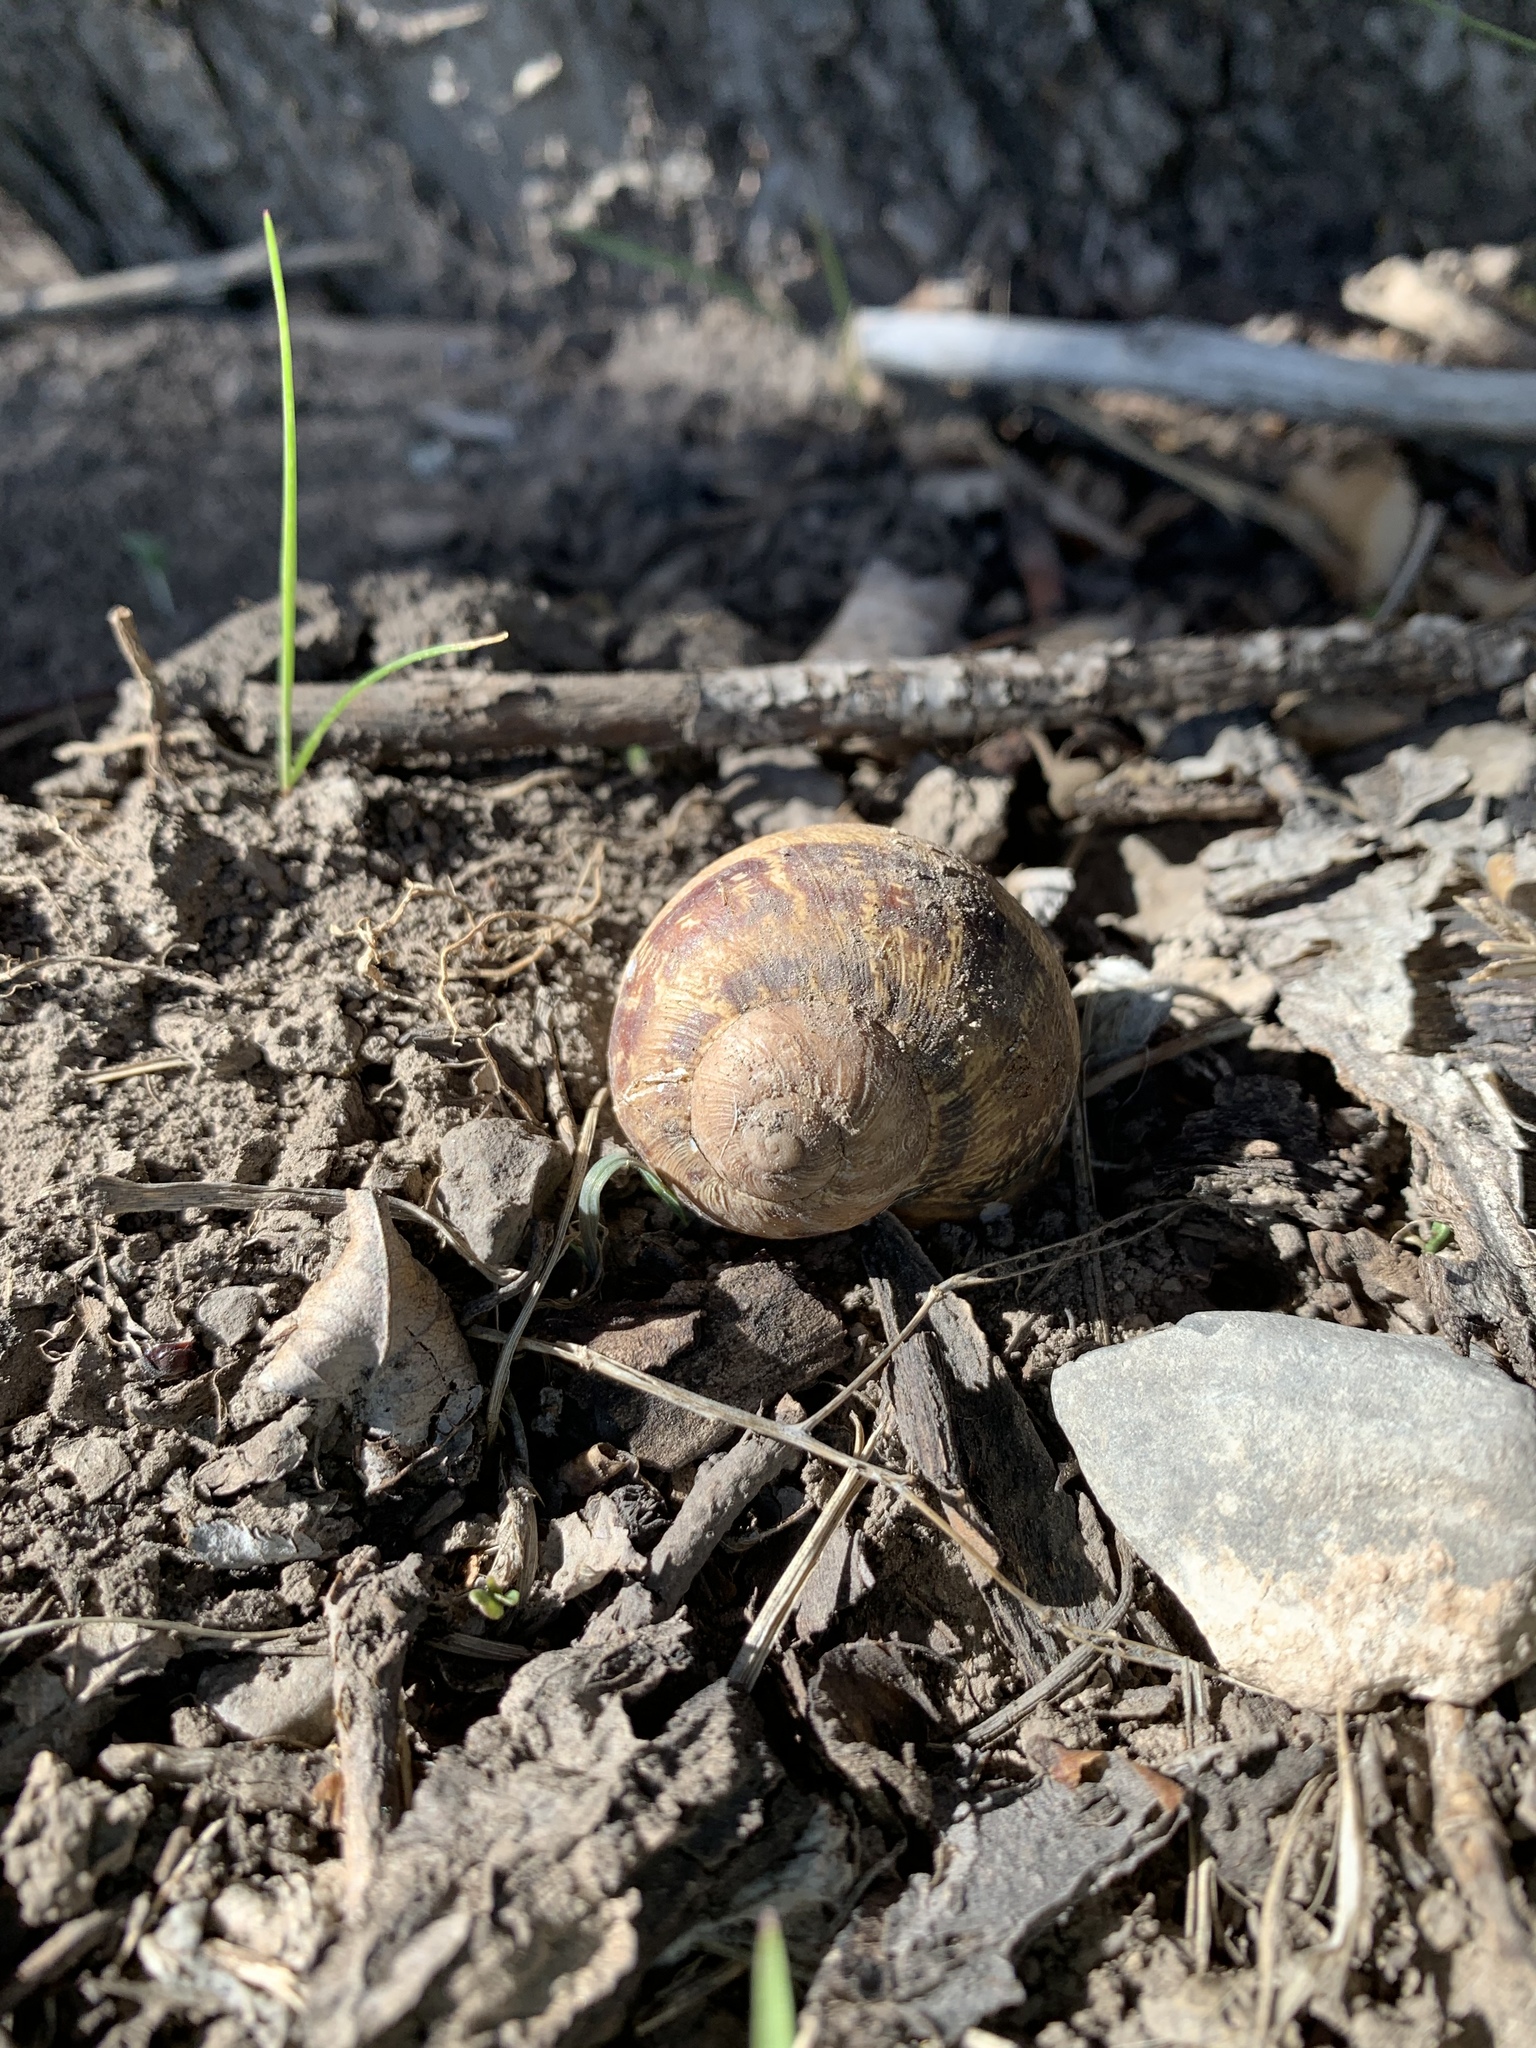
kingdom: Animalia
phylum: Mollusca
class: Gastropoda
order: Stylommatophora
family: Helicidae
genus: Cornu
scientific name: Cornu aspersum
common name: Brown garden snail
